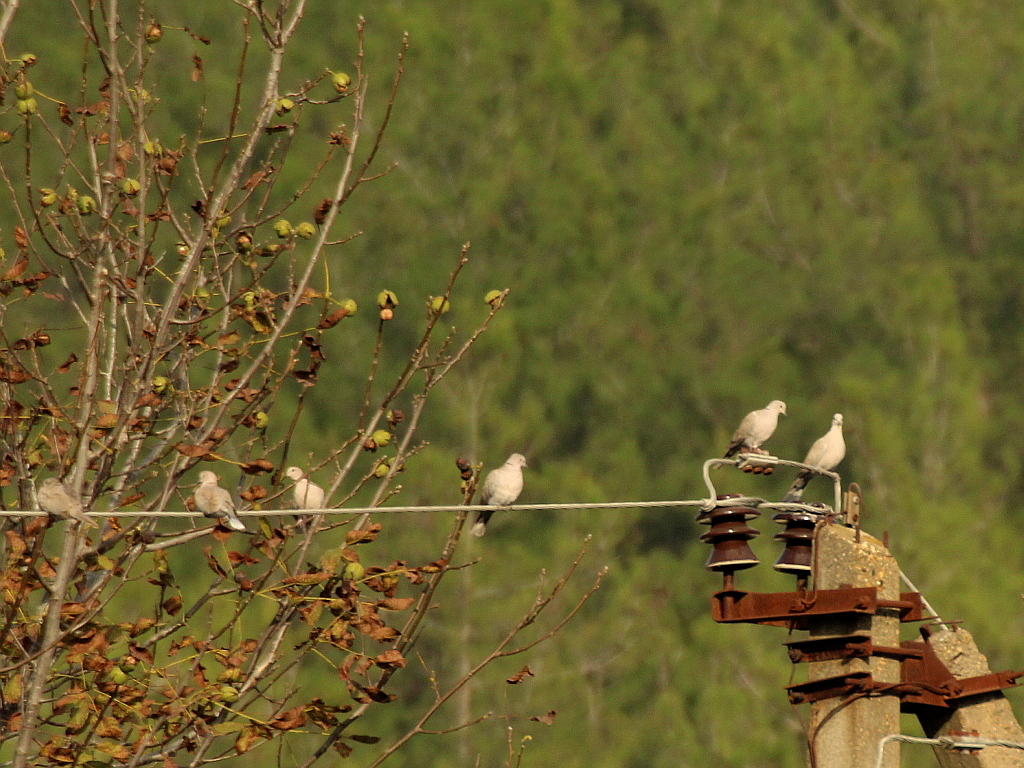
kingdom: Animalia
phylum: Chordata
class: Aves
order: Columbiformes
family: Columbidae
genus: Streptopelia
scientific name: Streptopelia decaocto
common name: Eurasian collared dove
